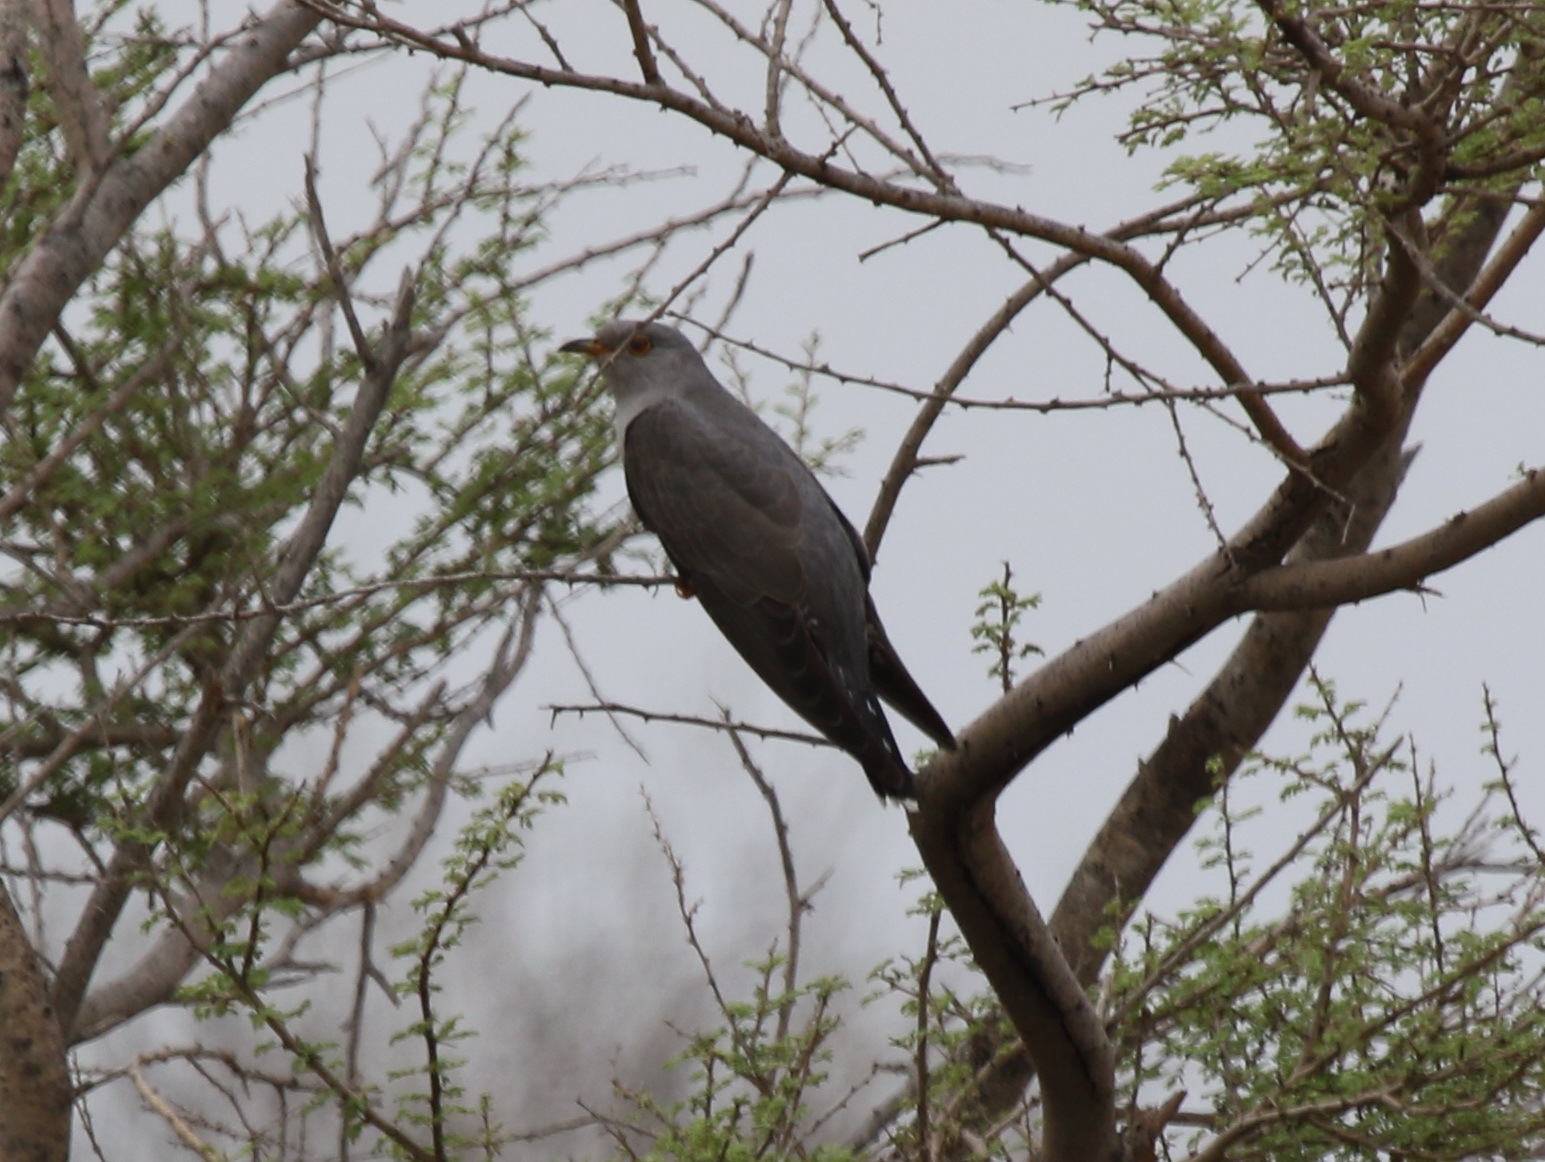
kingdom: Animalia
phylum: Chordata
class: Aves
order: Cuculiformes
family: Cuculidae
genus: Cuculus
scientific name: Cuculus canorus
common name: Common cuckoo
